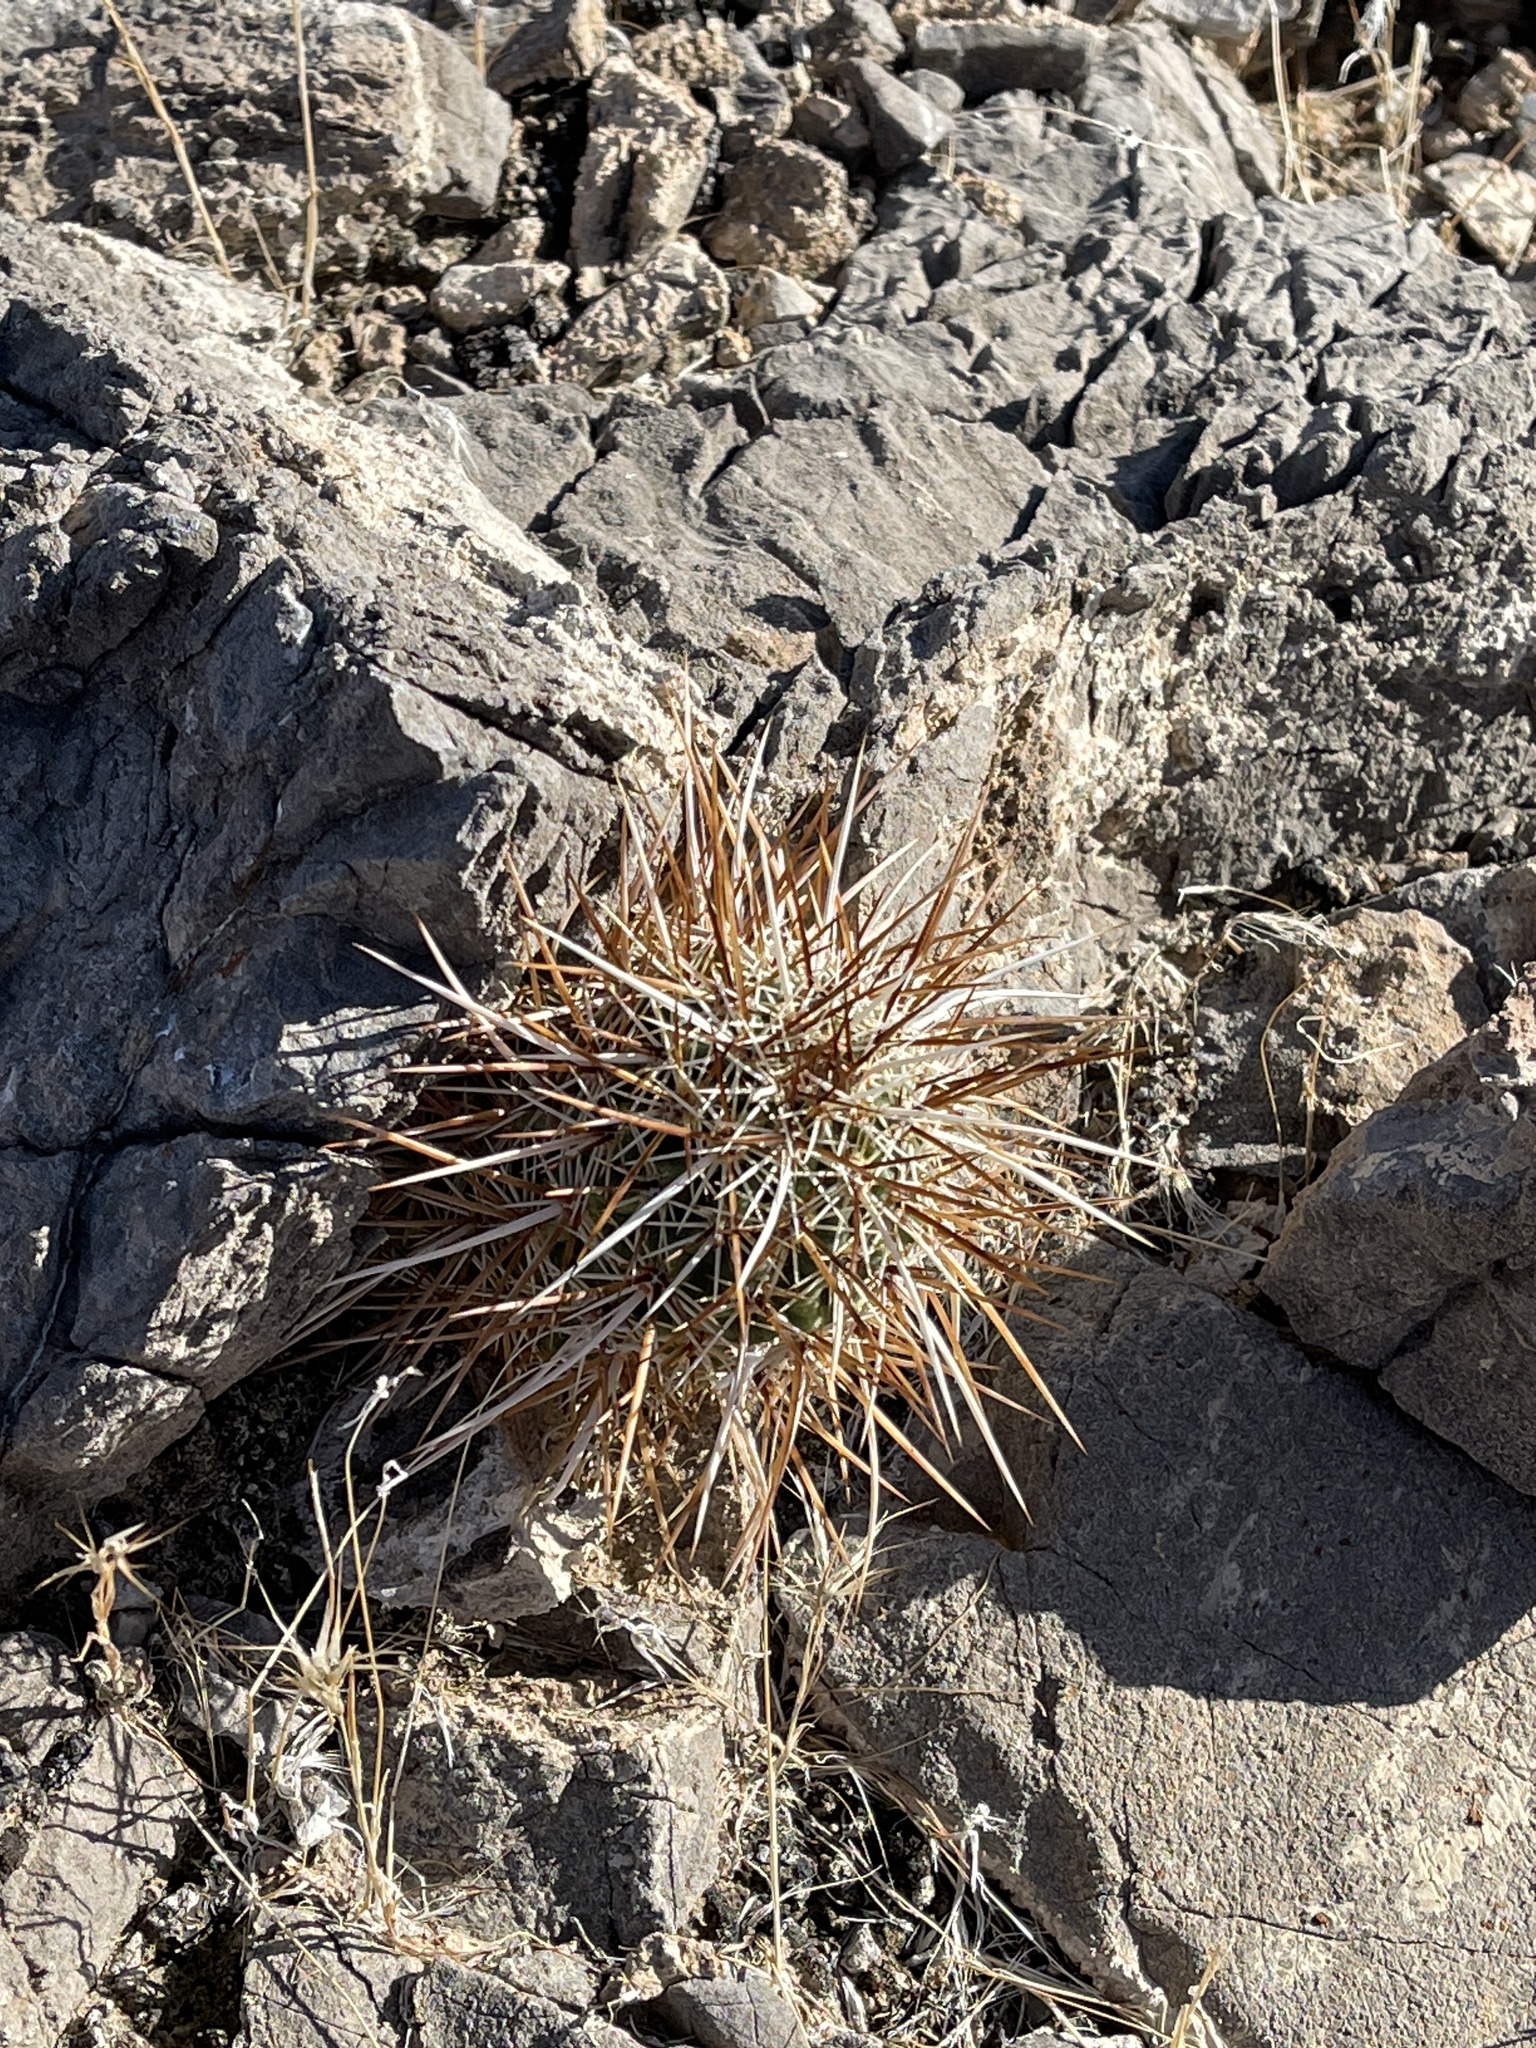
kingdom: Plantae
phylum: Tracheophyta
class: Magnoliopsida
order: Caryophyllales
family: Cactaceae
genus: Echinocereus
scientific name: Echinocereus engelmannii
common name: Engelmann's hedgehog cactus
